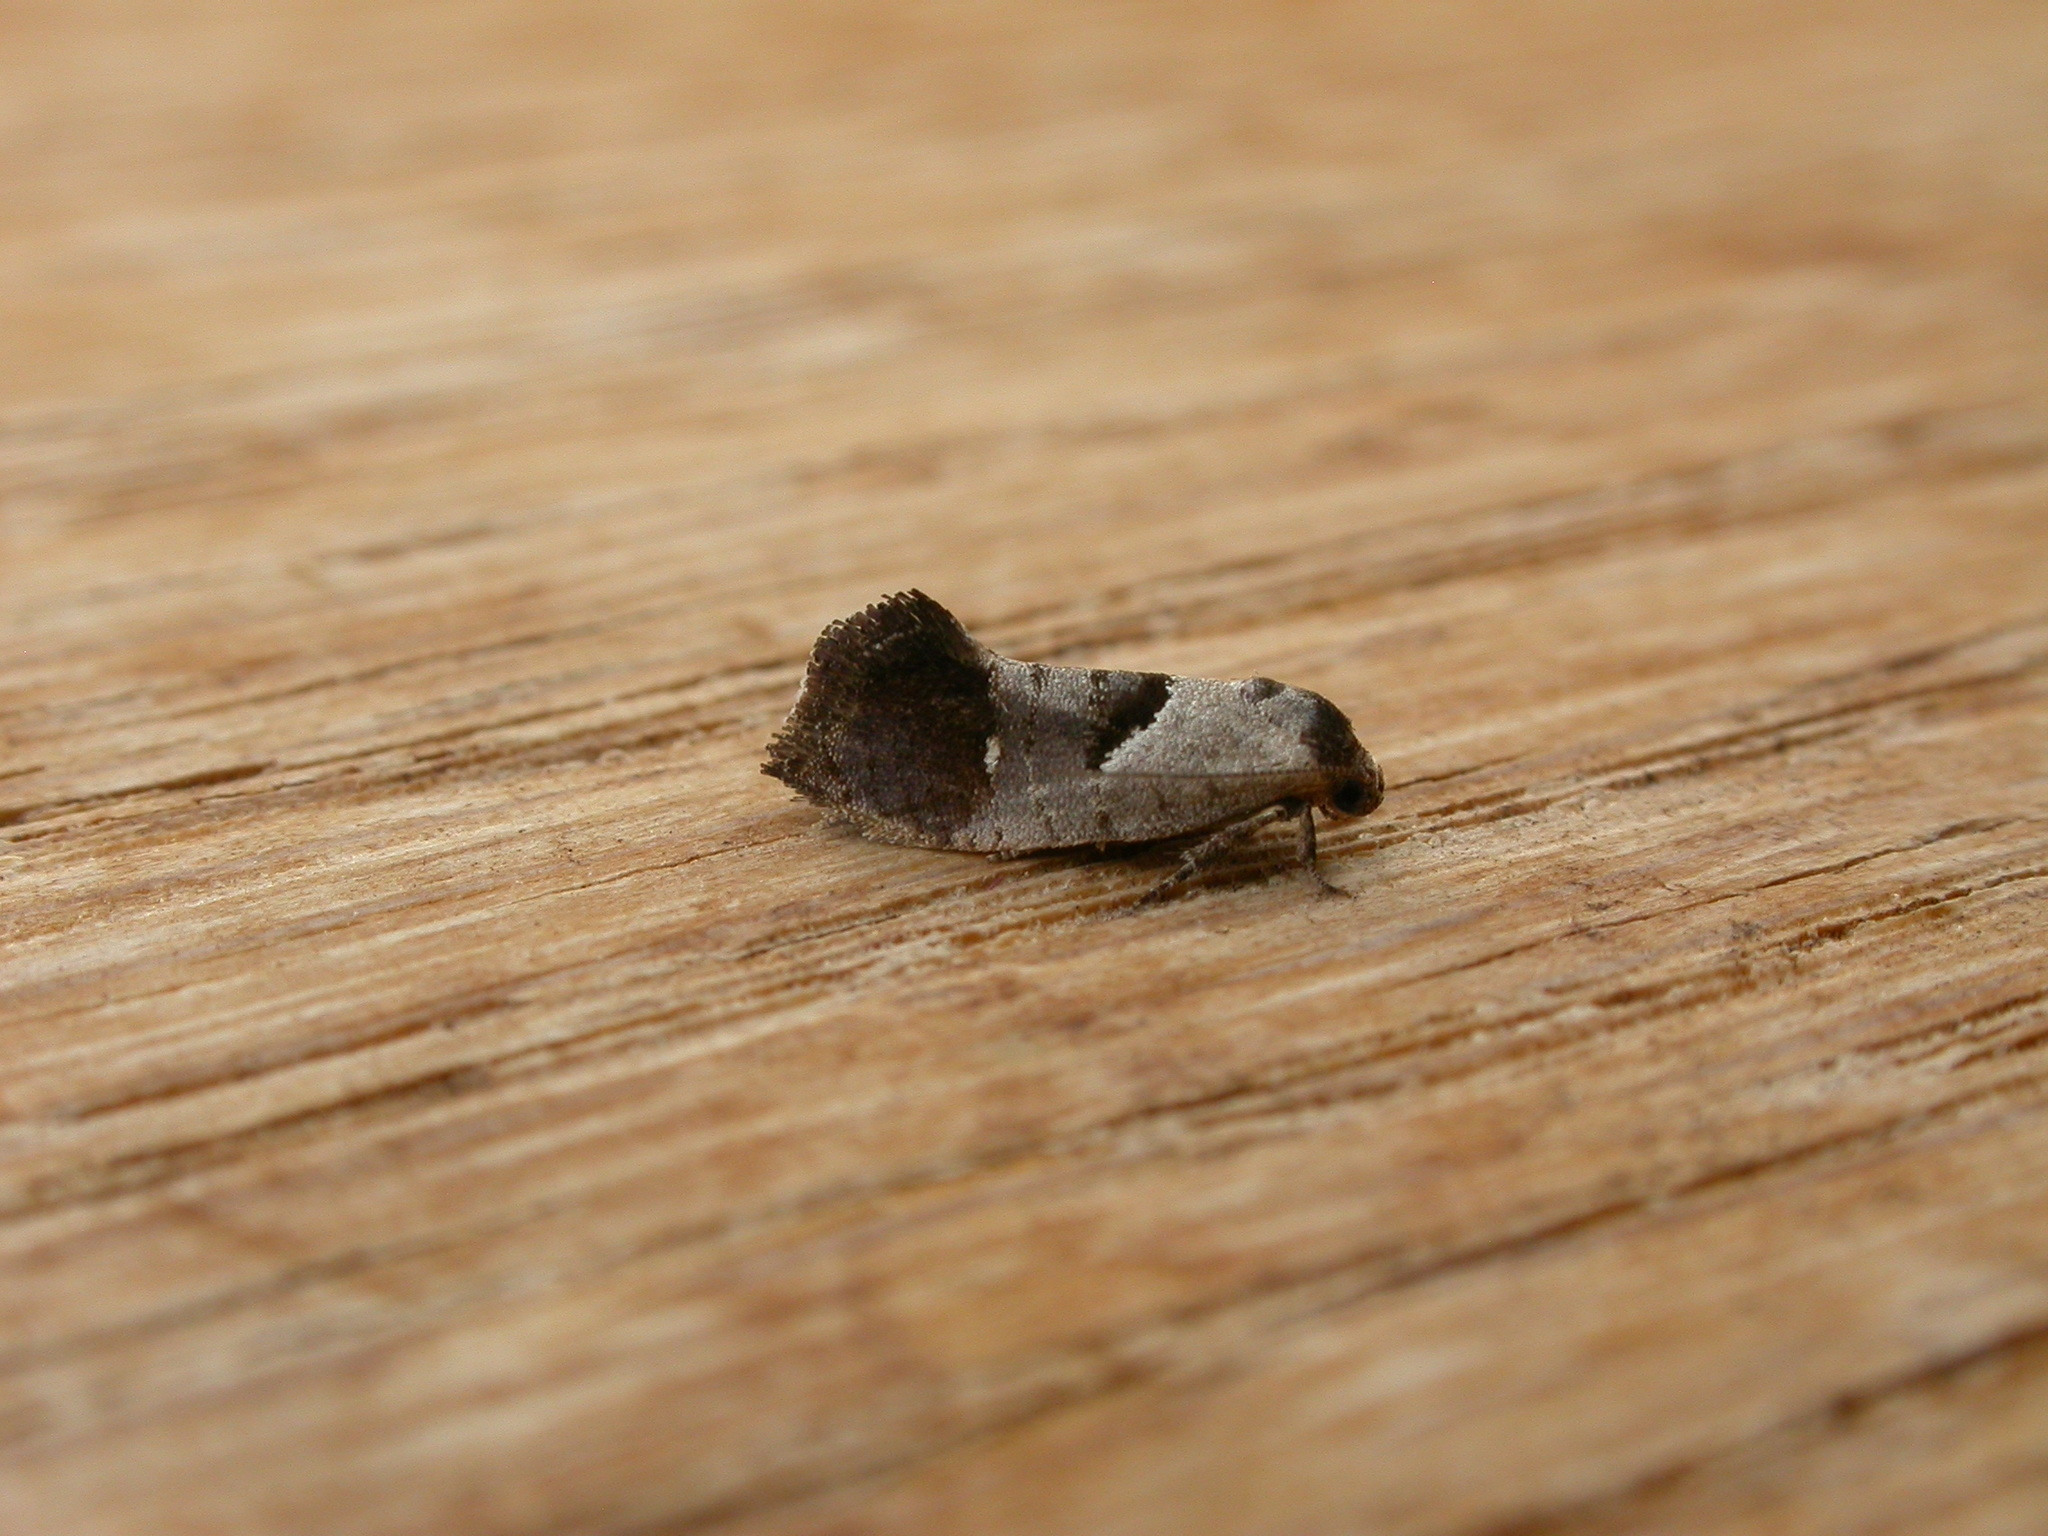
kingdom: Animalia
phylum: Arthropoda
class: Insecta
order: Lepidoptera
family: Depressariidae
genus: Eupselia
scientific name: Eupselia holoxantha
